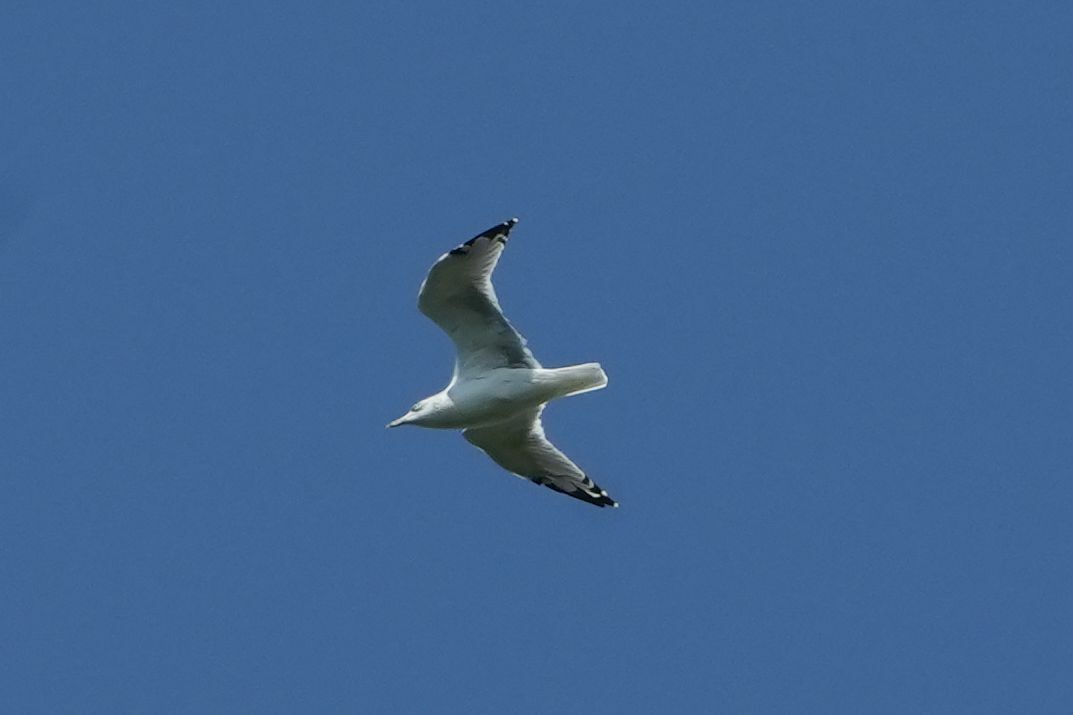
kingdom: Animalia
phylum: Chordata
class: Aves
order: Charadriiformes
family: Laridae
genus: Larus
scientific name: Larus delawarensis
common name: Ring-billed gull
